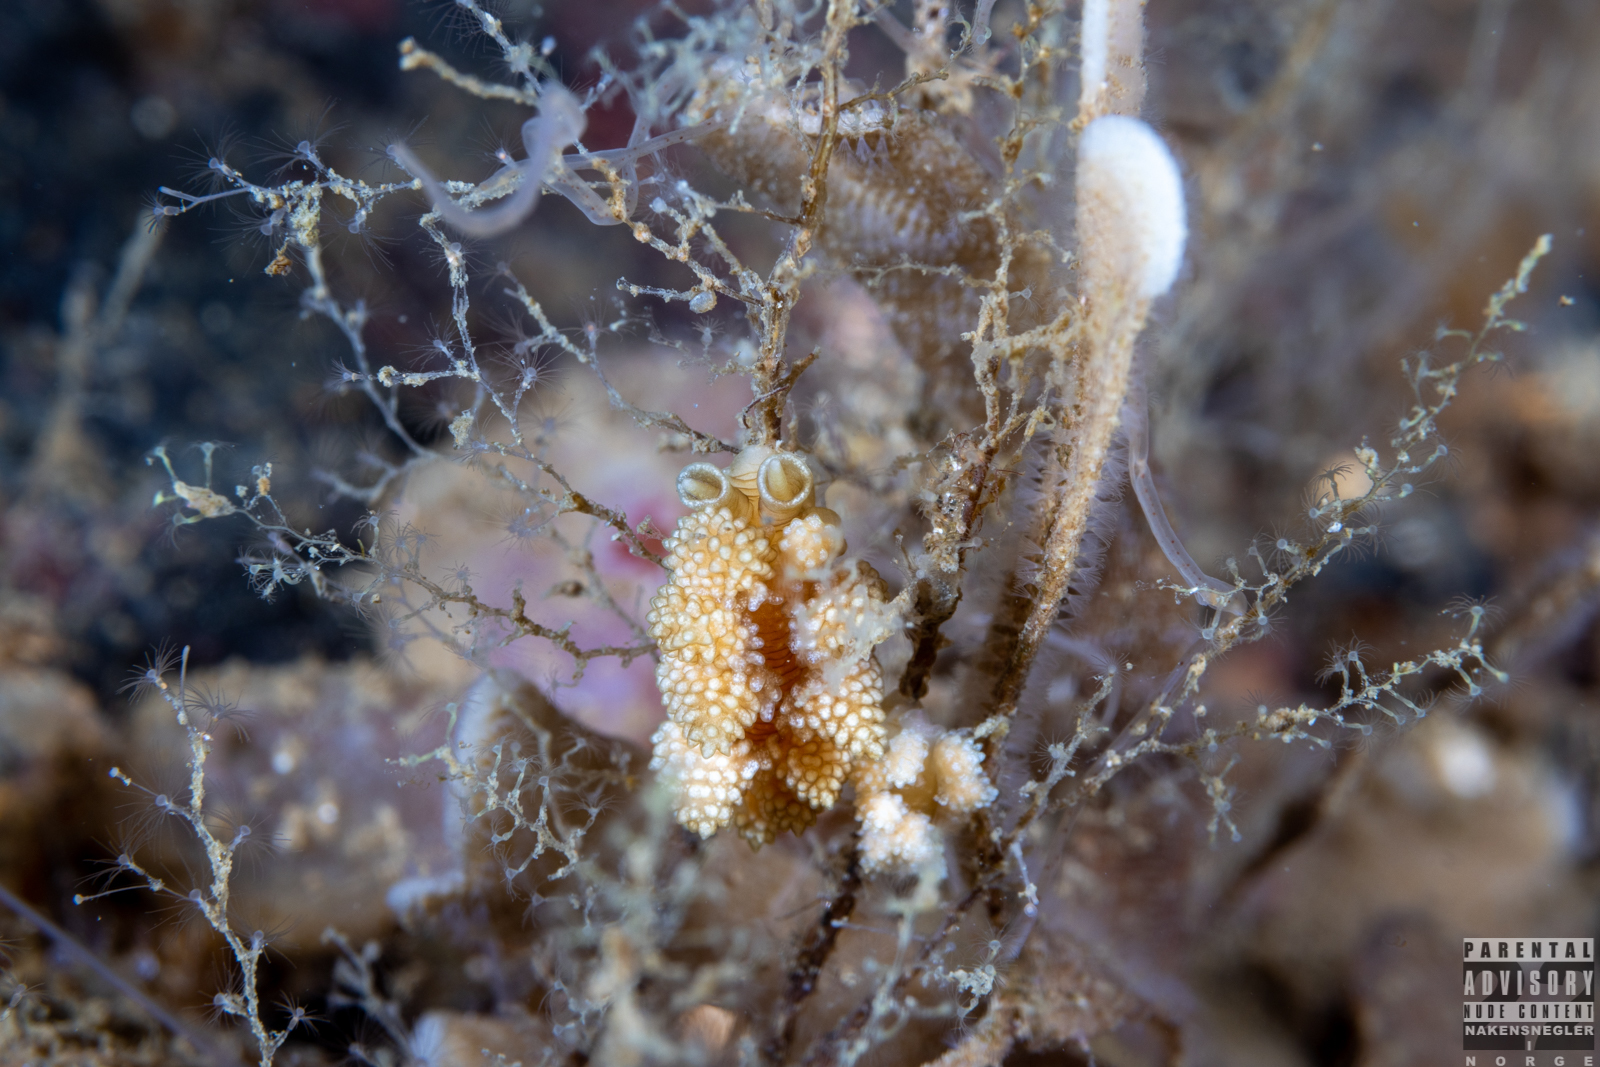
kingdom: Animalia
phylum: Mollusca
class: Gastropoda
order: Nudibranchia
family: Dotidae
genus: Doto
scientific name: Doto fragilis
